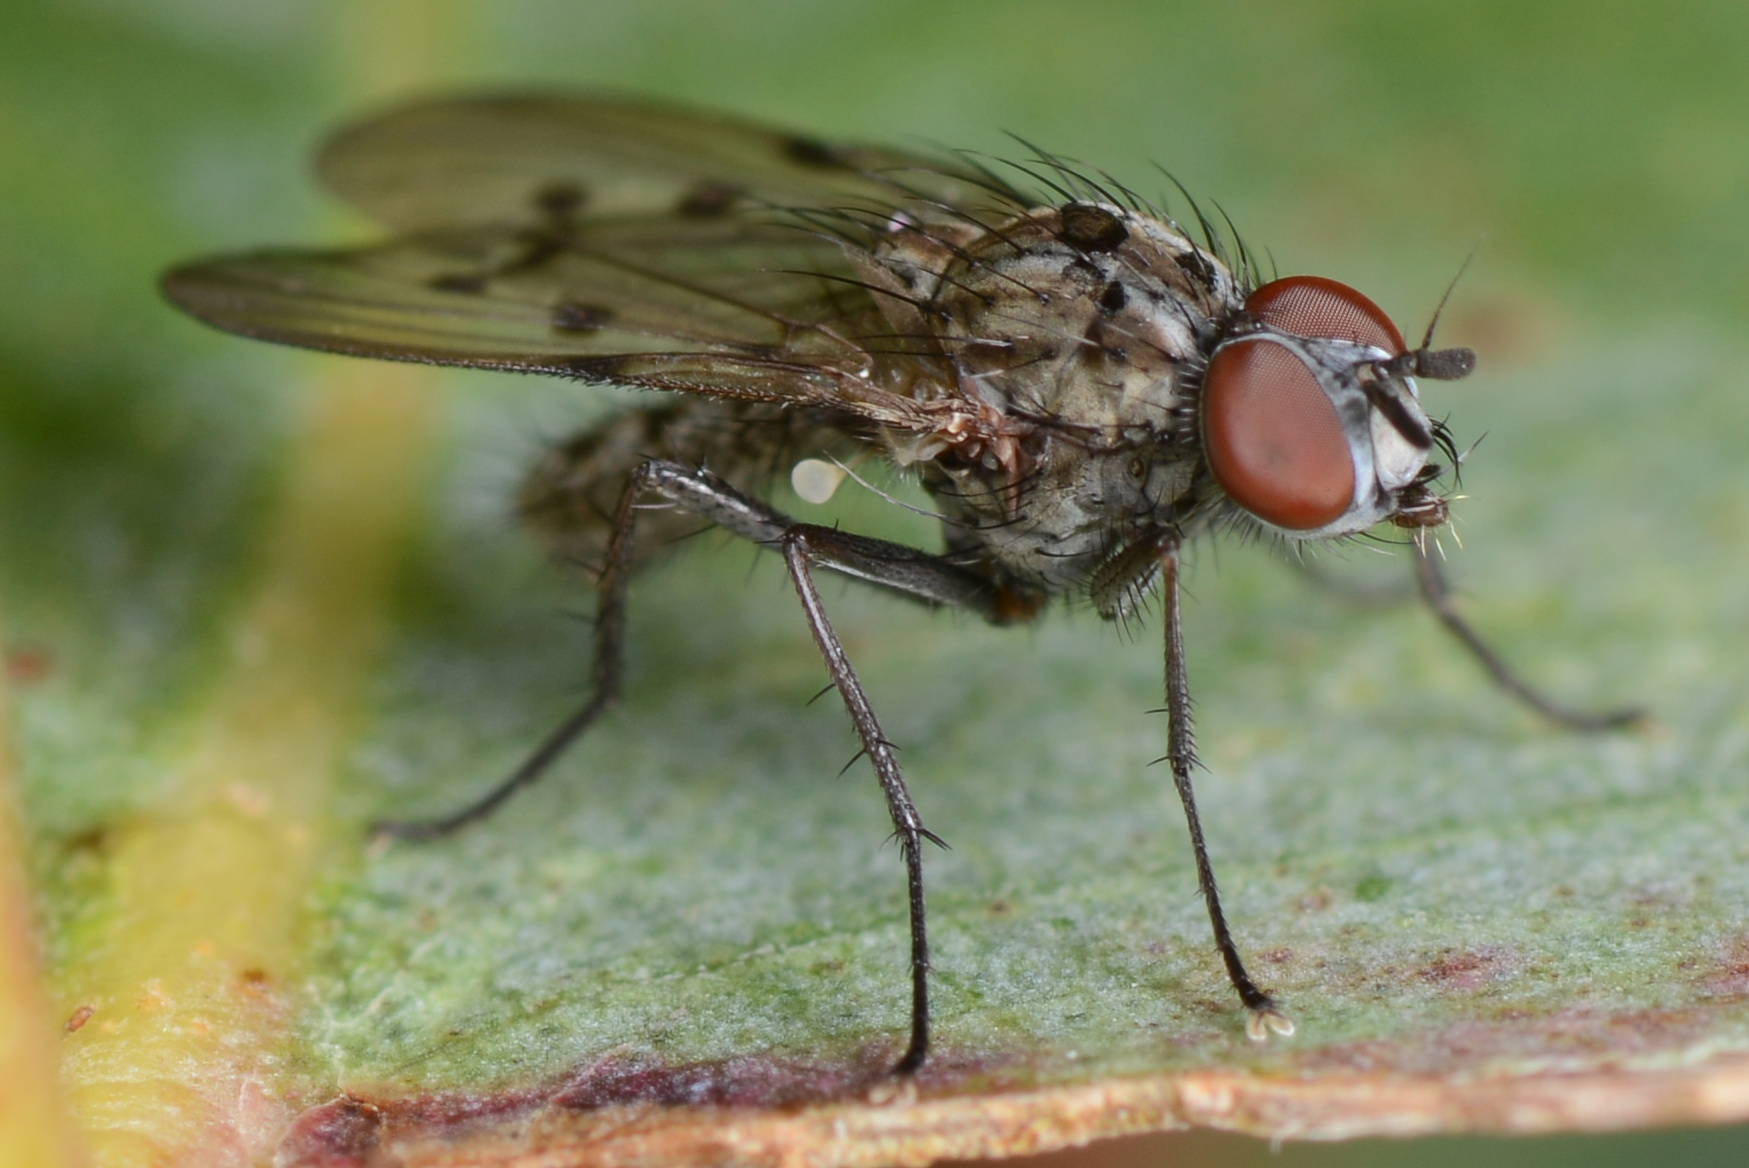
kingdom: Animalia
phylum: Arthropoda
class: Insecta
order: Diptera
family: Anthomyiidae
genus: Anthomyia
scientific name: Anthomyia punctipennis
